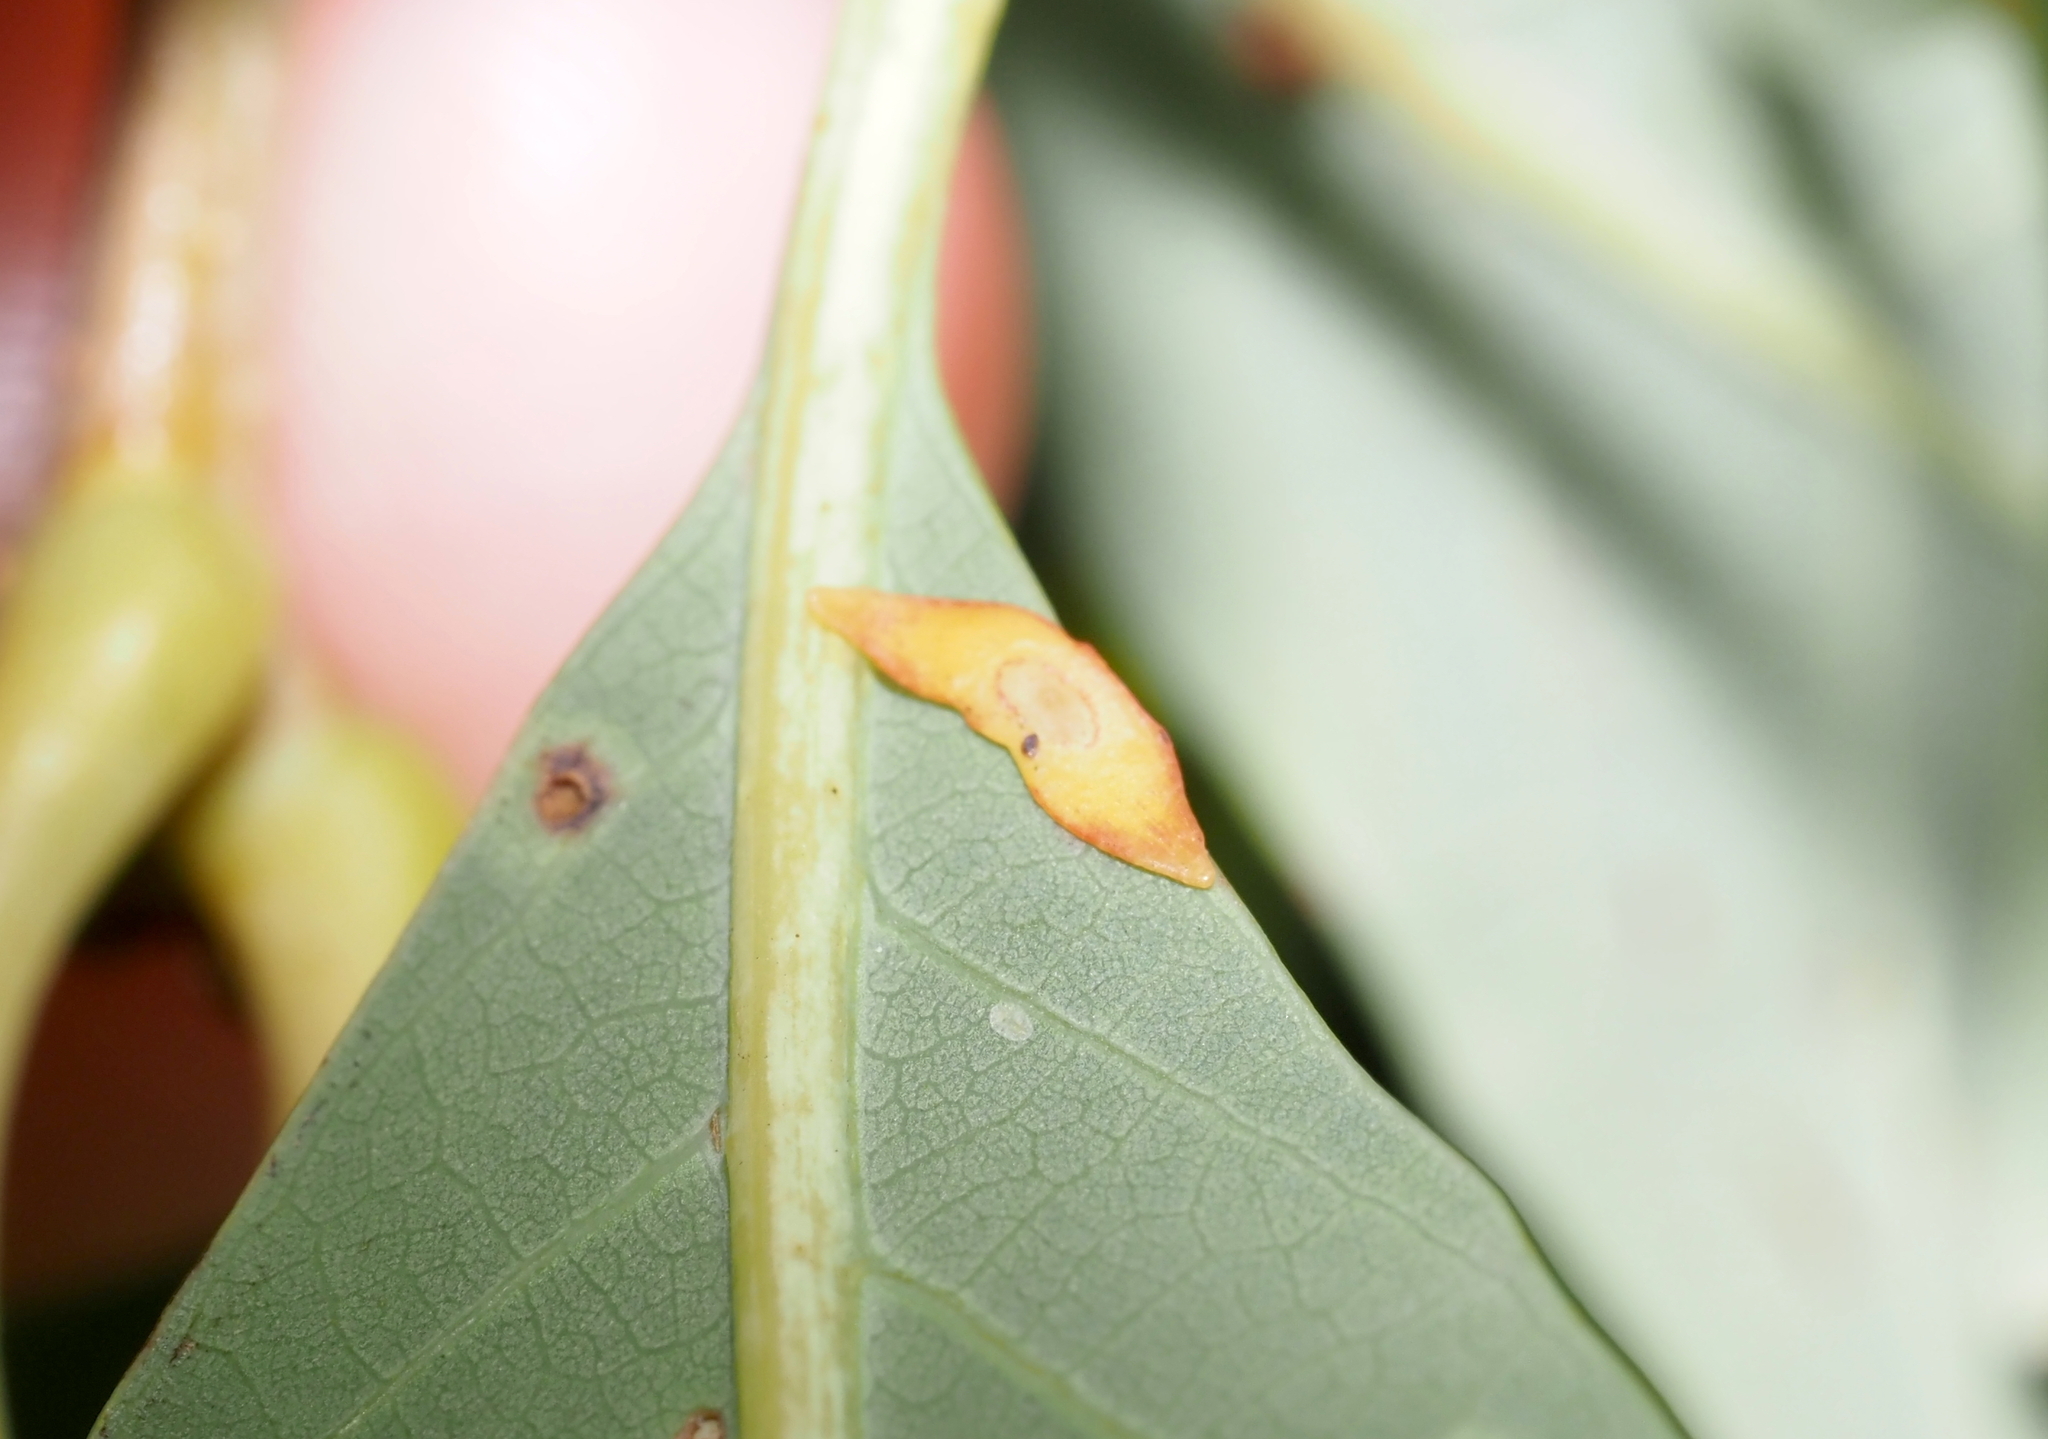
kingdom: Animalia
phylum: Arthropoda
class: Insecta
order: Hymenoptera
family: Cynipidae
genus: Phylloteras
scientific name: Phylloteras
